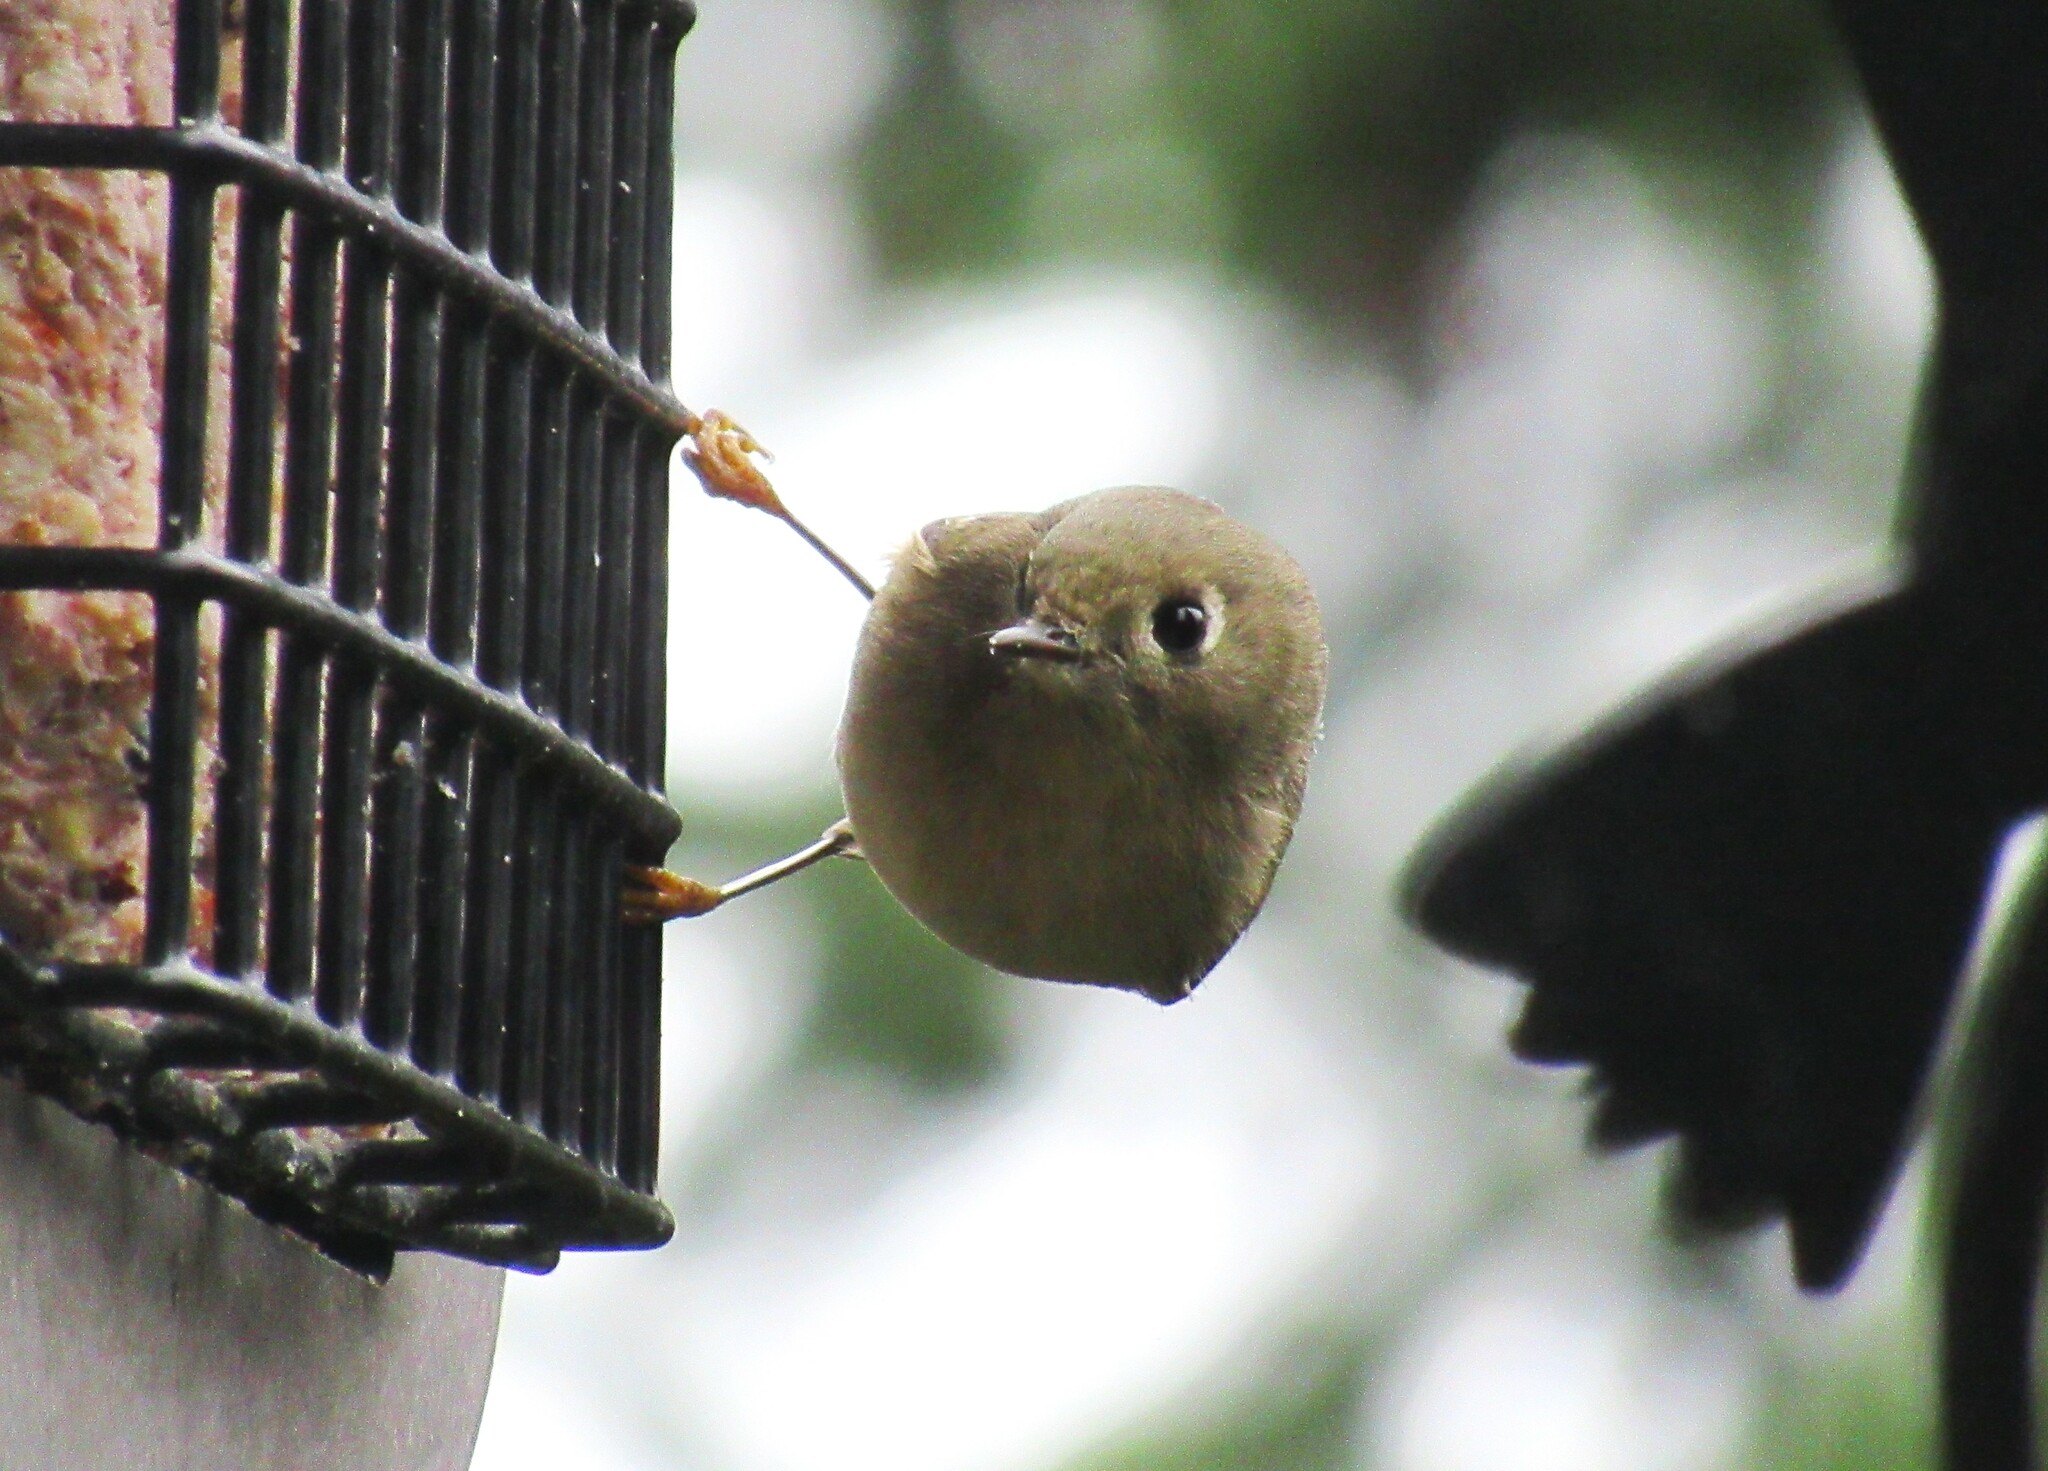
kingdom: Animalia
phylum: Chordata
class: Aves
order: Passeriformes
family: Regulidae
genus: Regulus
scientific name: Regulus calendula
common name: Ruby-crowned kinglet
